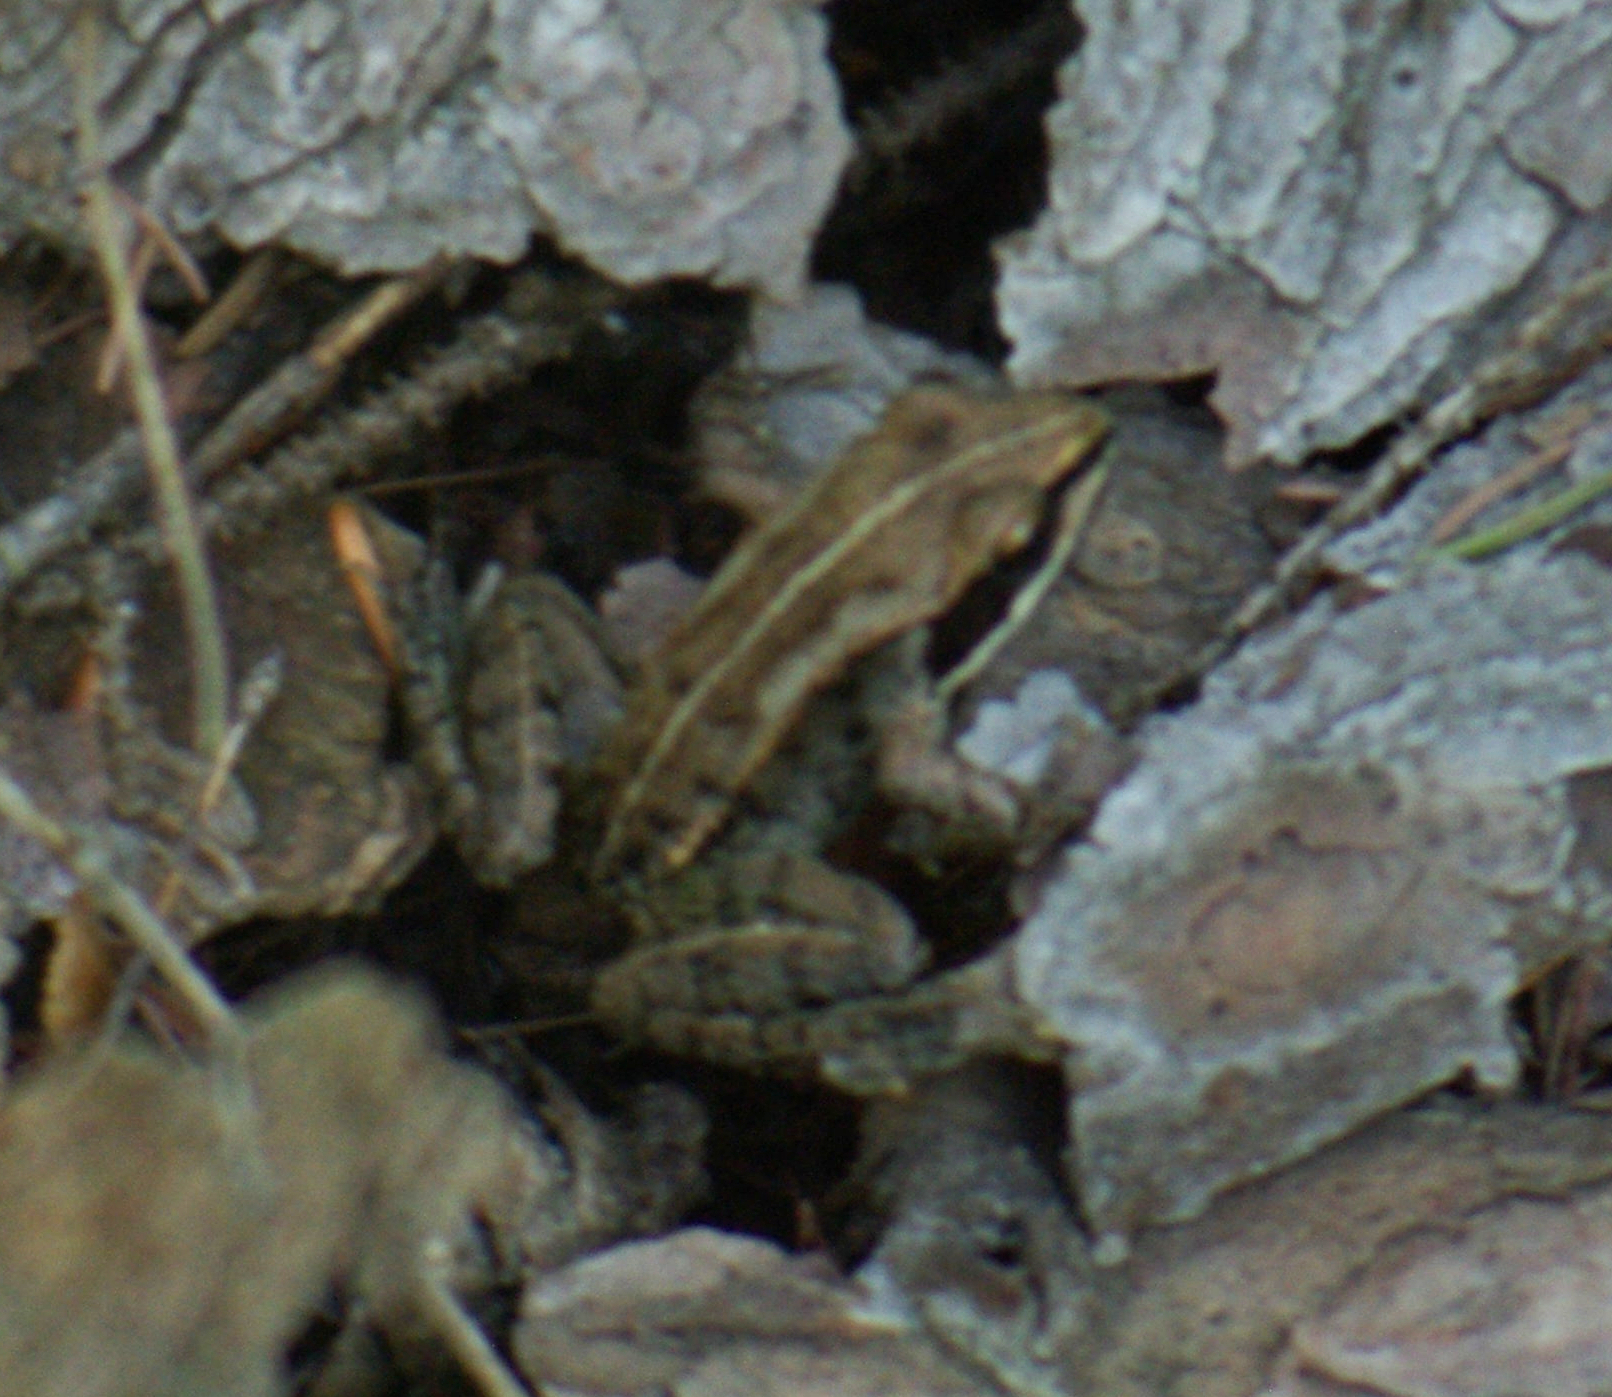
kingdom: Animalia
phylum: Chordata
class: Amphibia
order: Anura
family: Ranidae
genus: Lithobates
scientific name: Lithobates sylvaticus
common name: Wood frog
